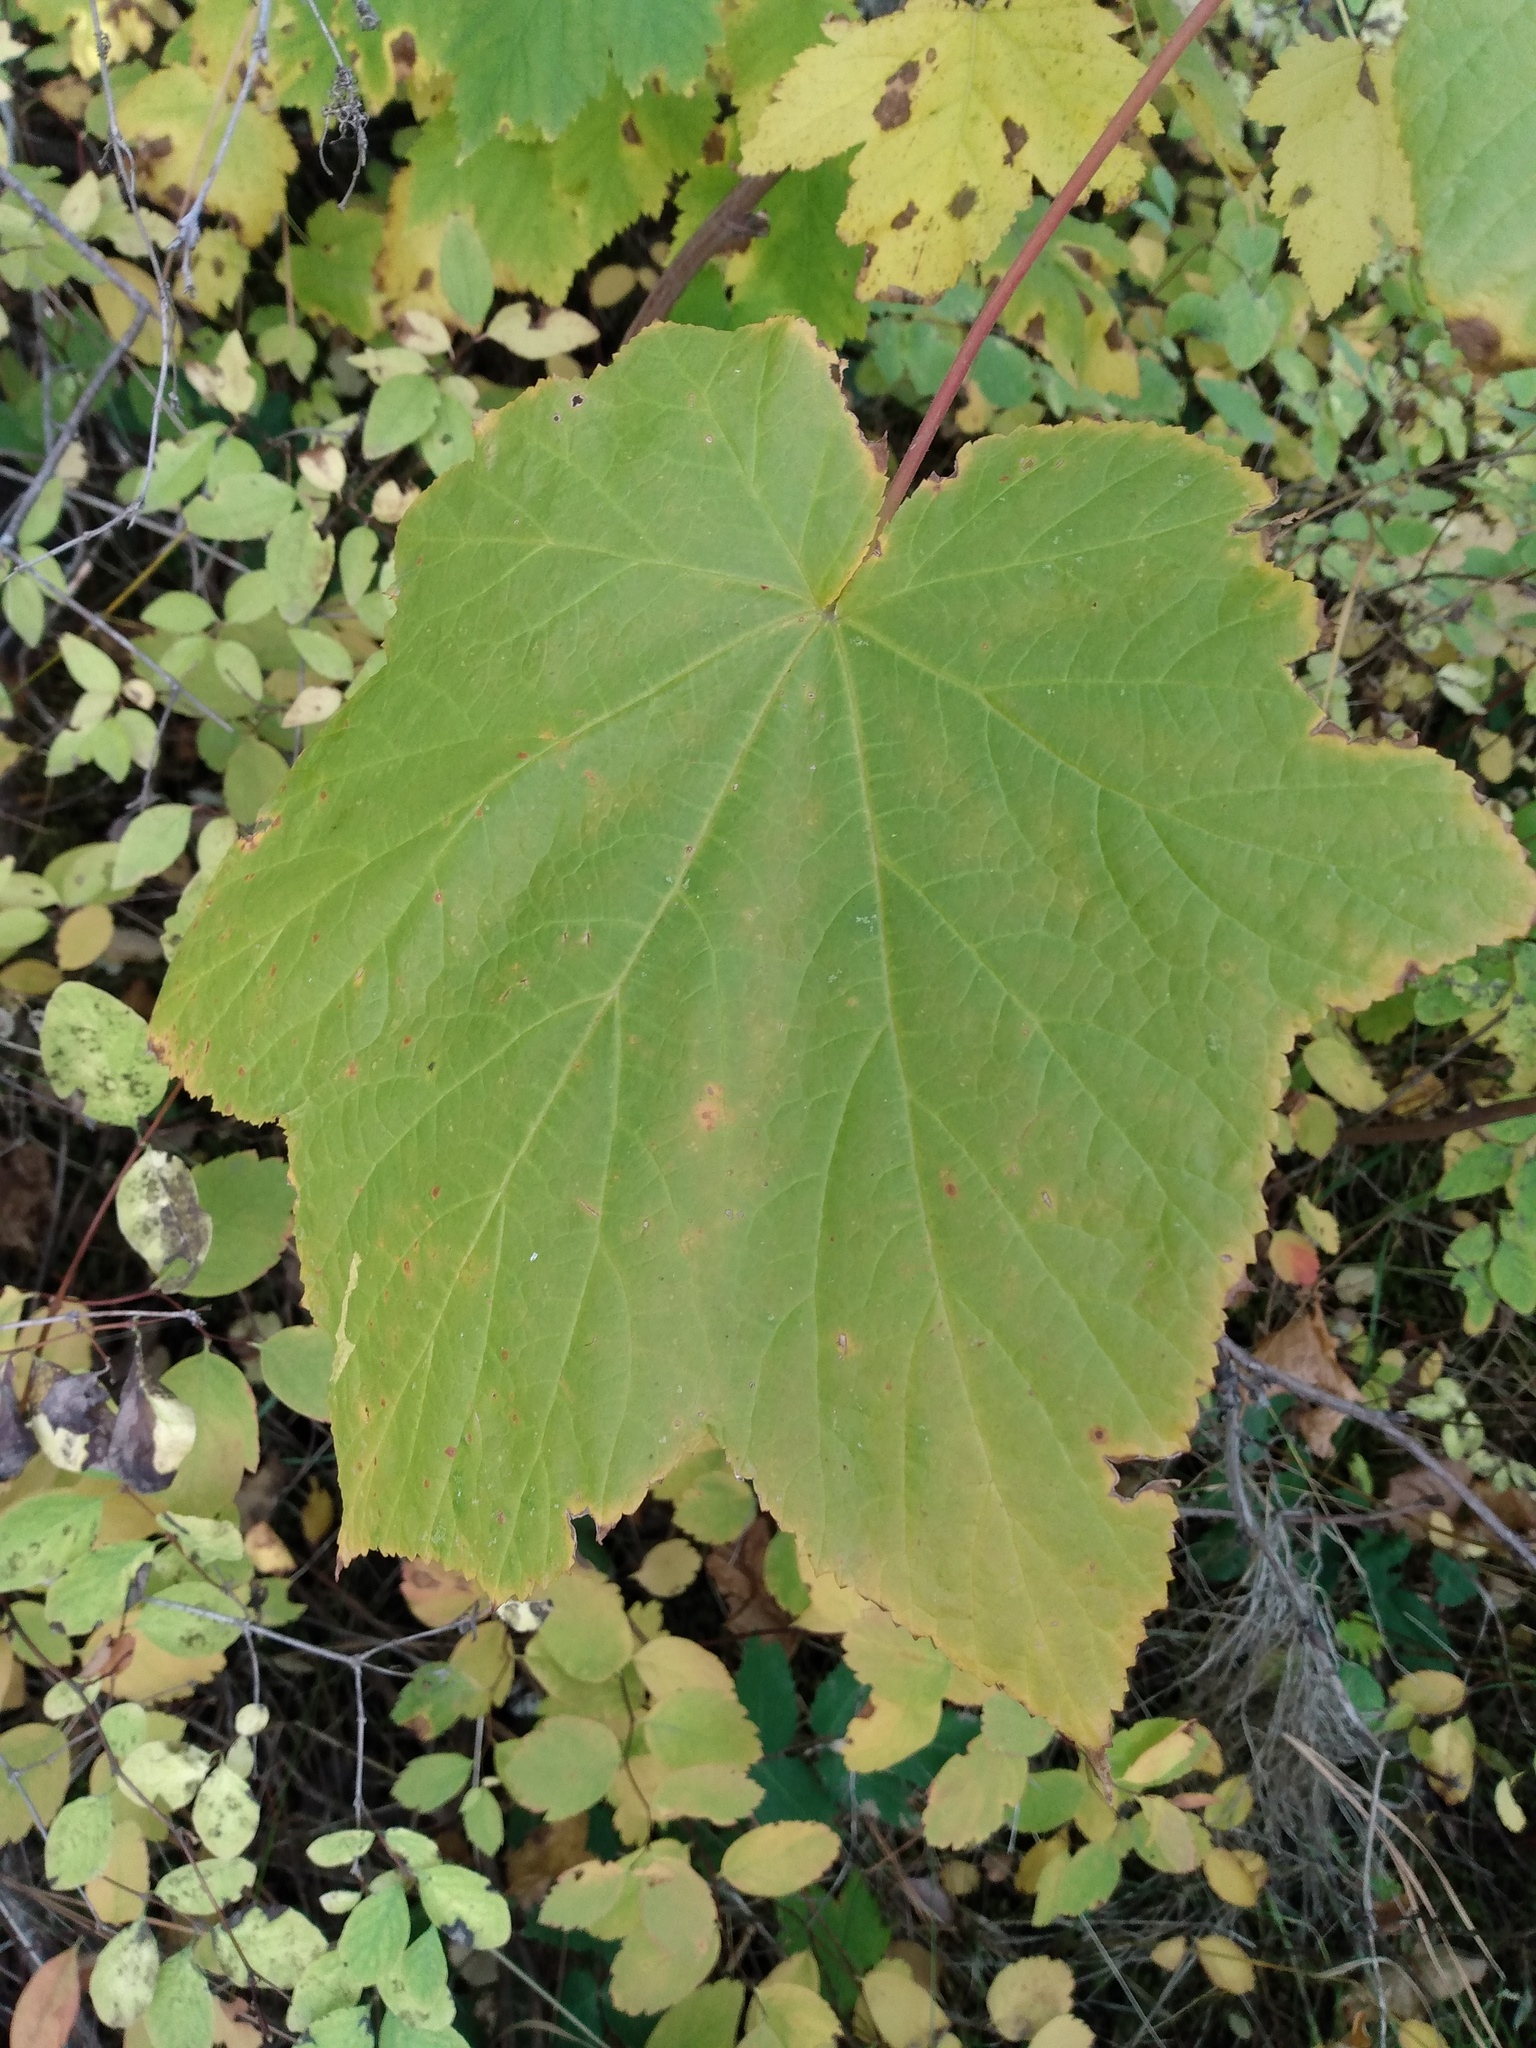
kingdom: Plantae
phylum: Tracheophyta
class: Magnoliopsida
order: Rosales
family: Rosaceae
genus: Rubus
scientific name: Rubus parviflorus
